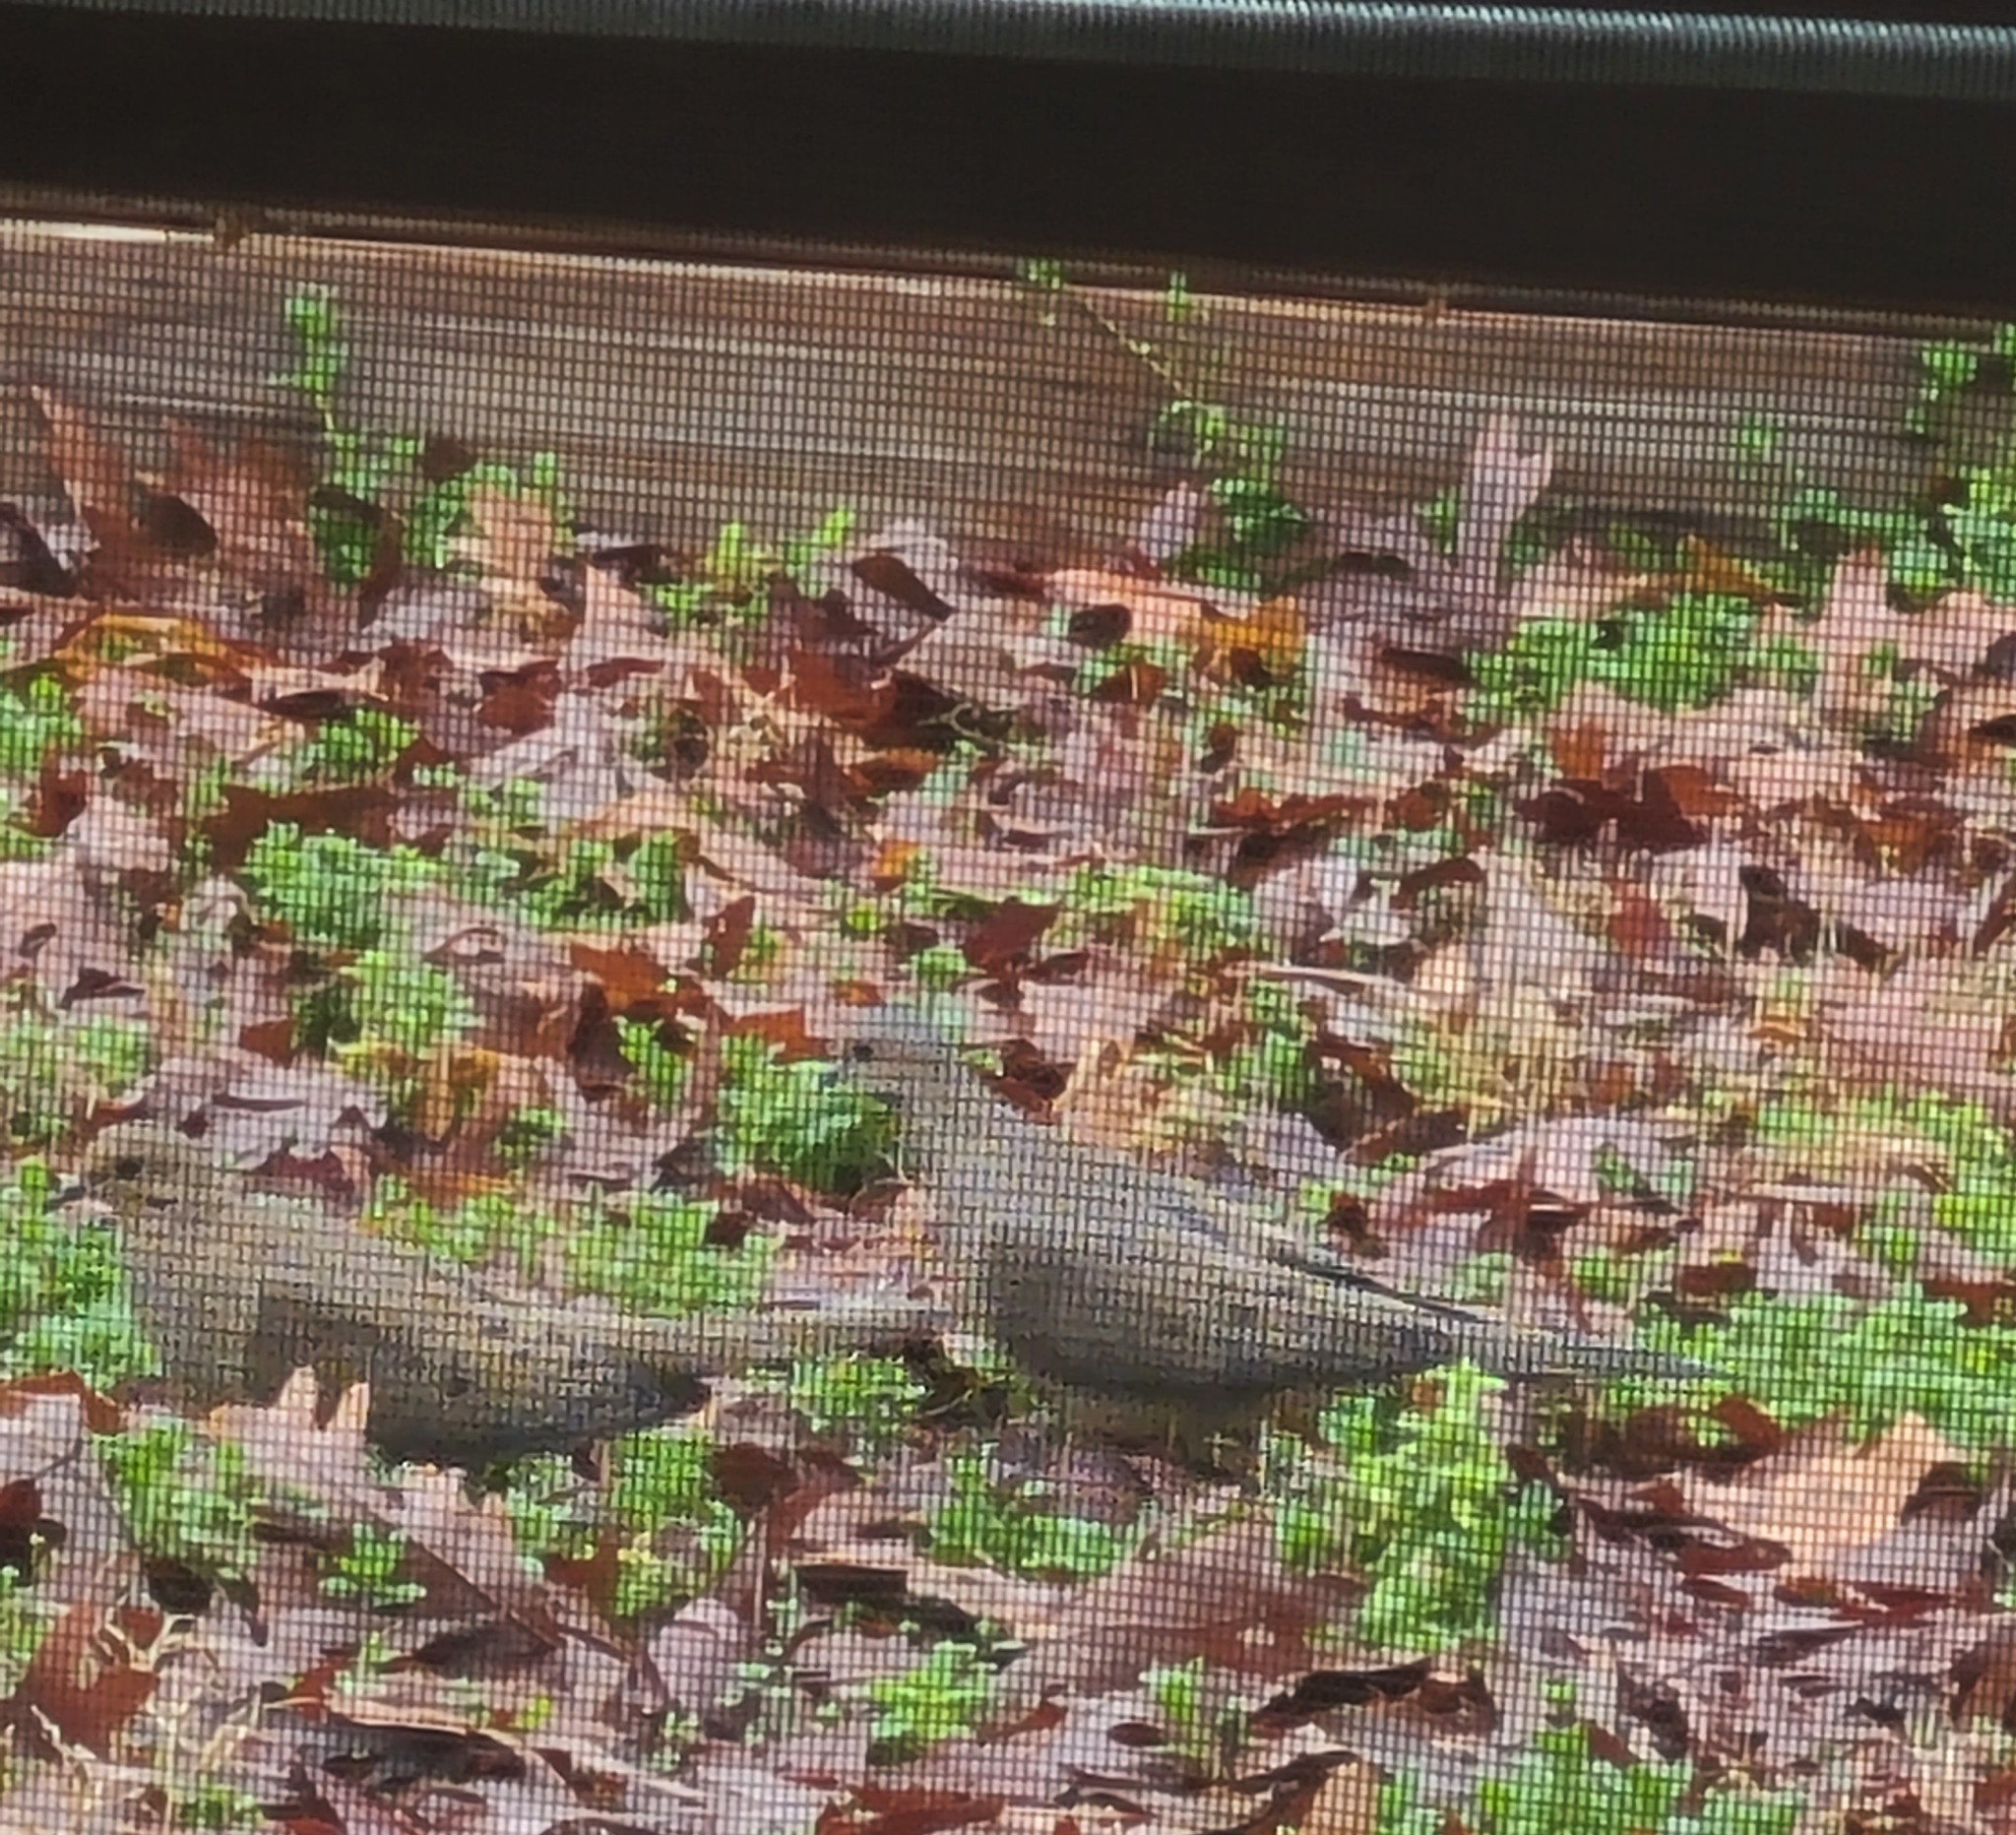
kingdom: Animalia
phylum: Chordata
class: Aves
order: Columbiformes
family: Columbidae
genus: Zenaida
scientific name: Zenaida macroura
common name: Mourning dove
